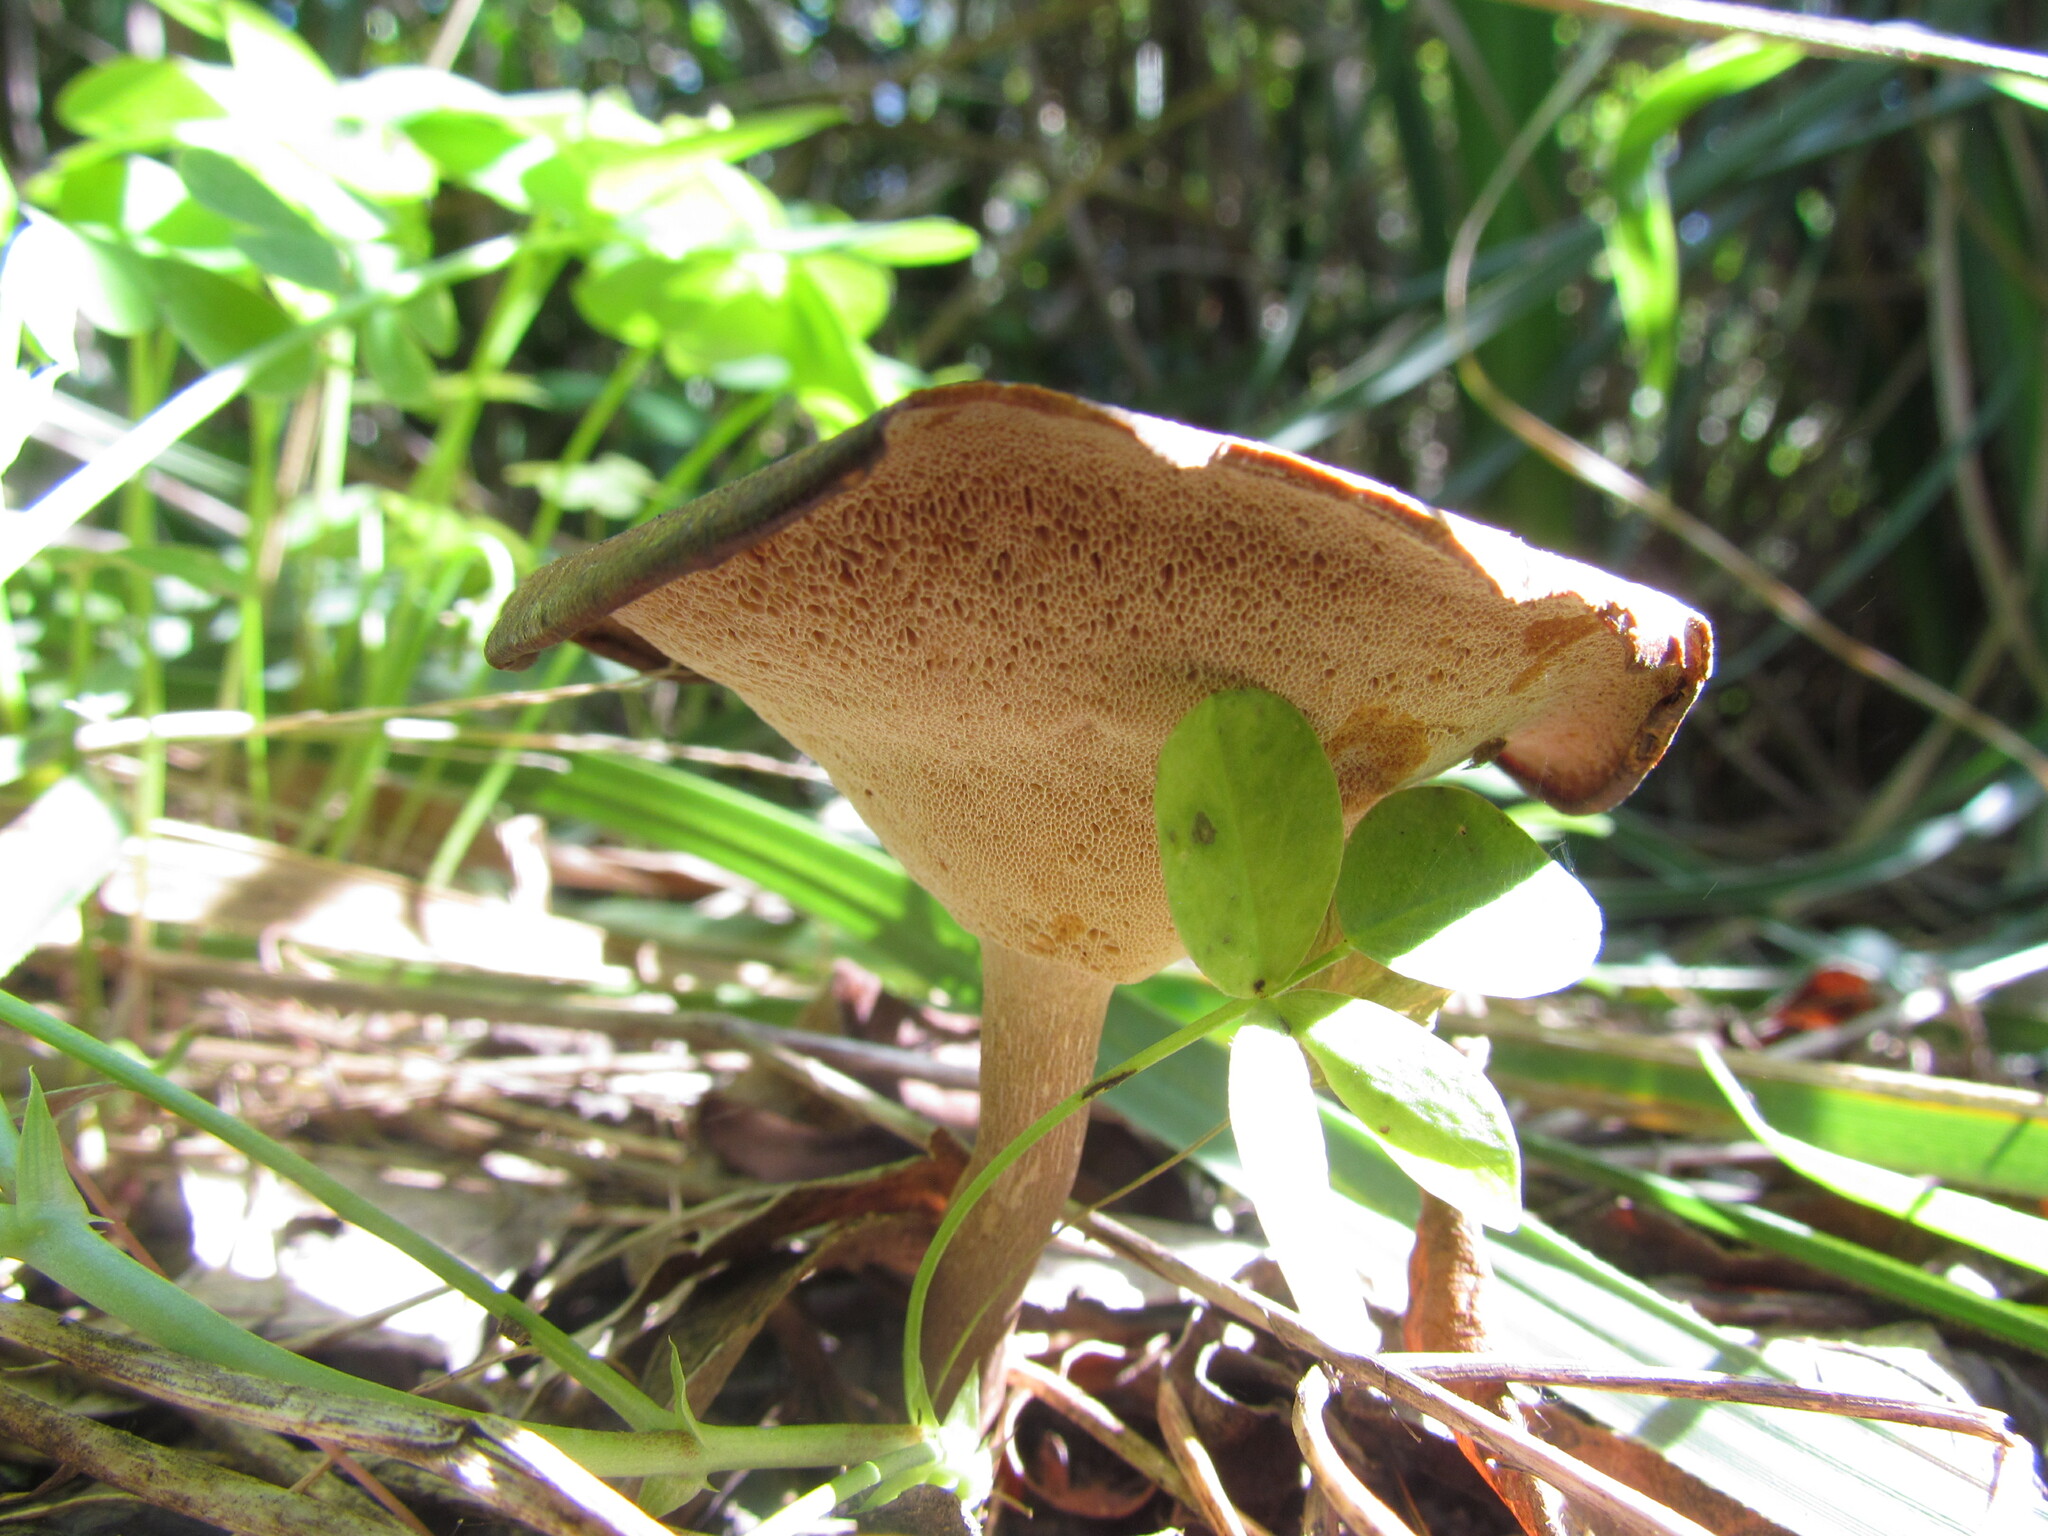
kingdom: Fungi
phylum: Basidiomycota
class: Agaricomycetes
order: Polyporales
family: Polyporaceae
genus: Cerioporus
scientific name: Cerioporus varius
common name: Elegant polypore
